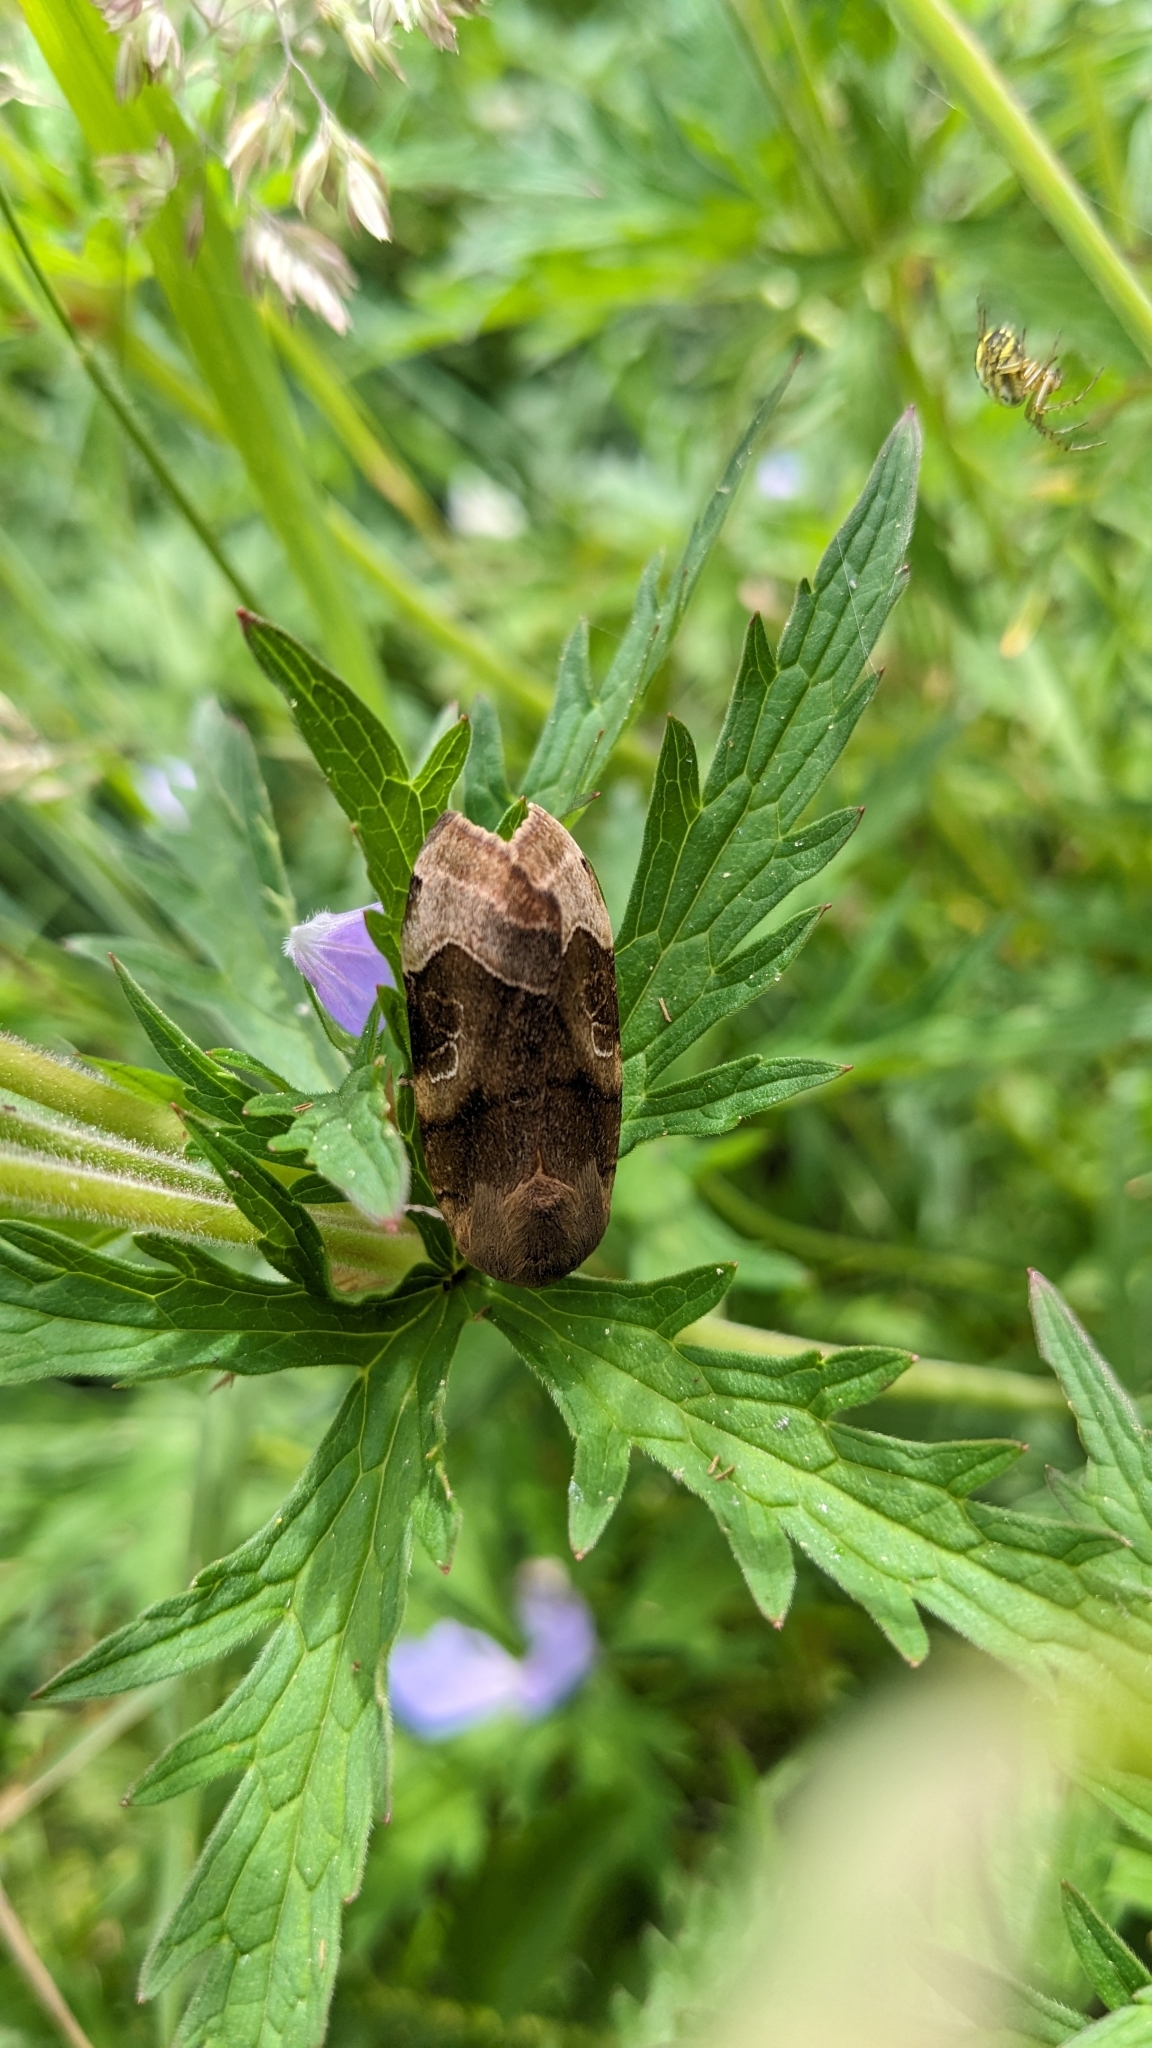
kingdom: Animalia
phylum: Arthropoda
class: Insecta
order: Lepidoptera
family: Noctuidae
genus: Noctua
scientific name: Noctua fimbriata
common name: Broad-bordered yellow underwing
